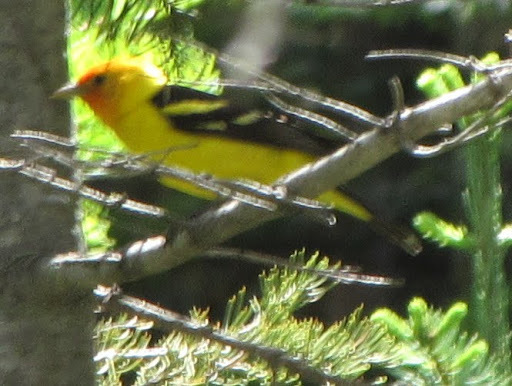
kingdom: Animalia
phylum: Chordata
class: Aves
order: Passeriformes
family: Cardinalidae
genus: Piranga
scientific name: Piranga ludoviciana
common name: Western tanager
